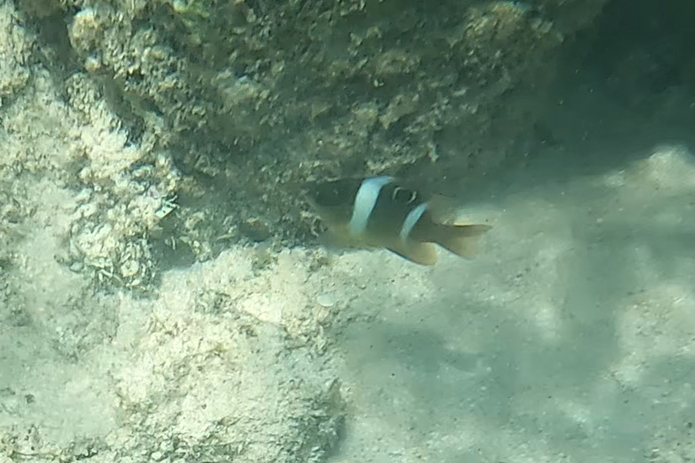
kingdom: Animalia
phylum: Chordata
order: Perciformes
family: Pomacentridae
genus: Dischistodus
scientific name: Dischistodus pseudochrysopoecilus
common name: Monarch damsel
